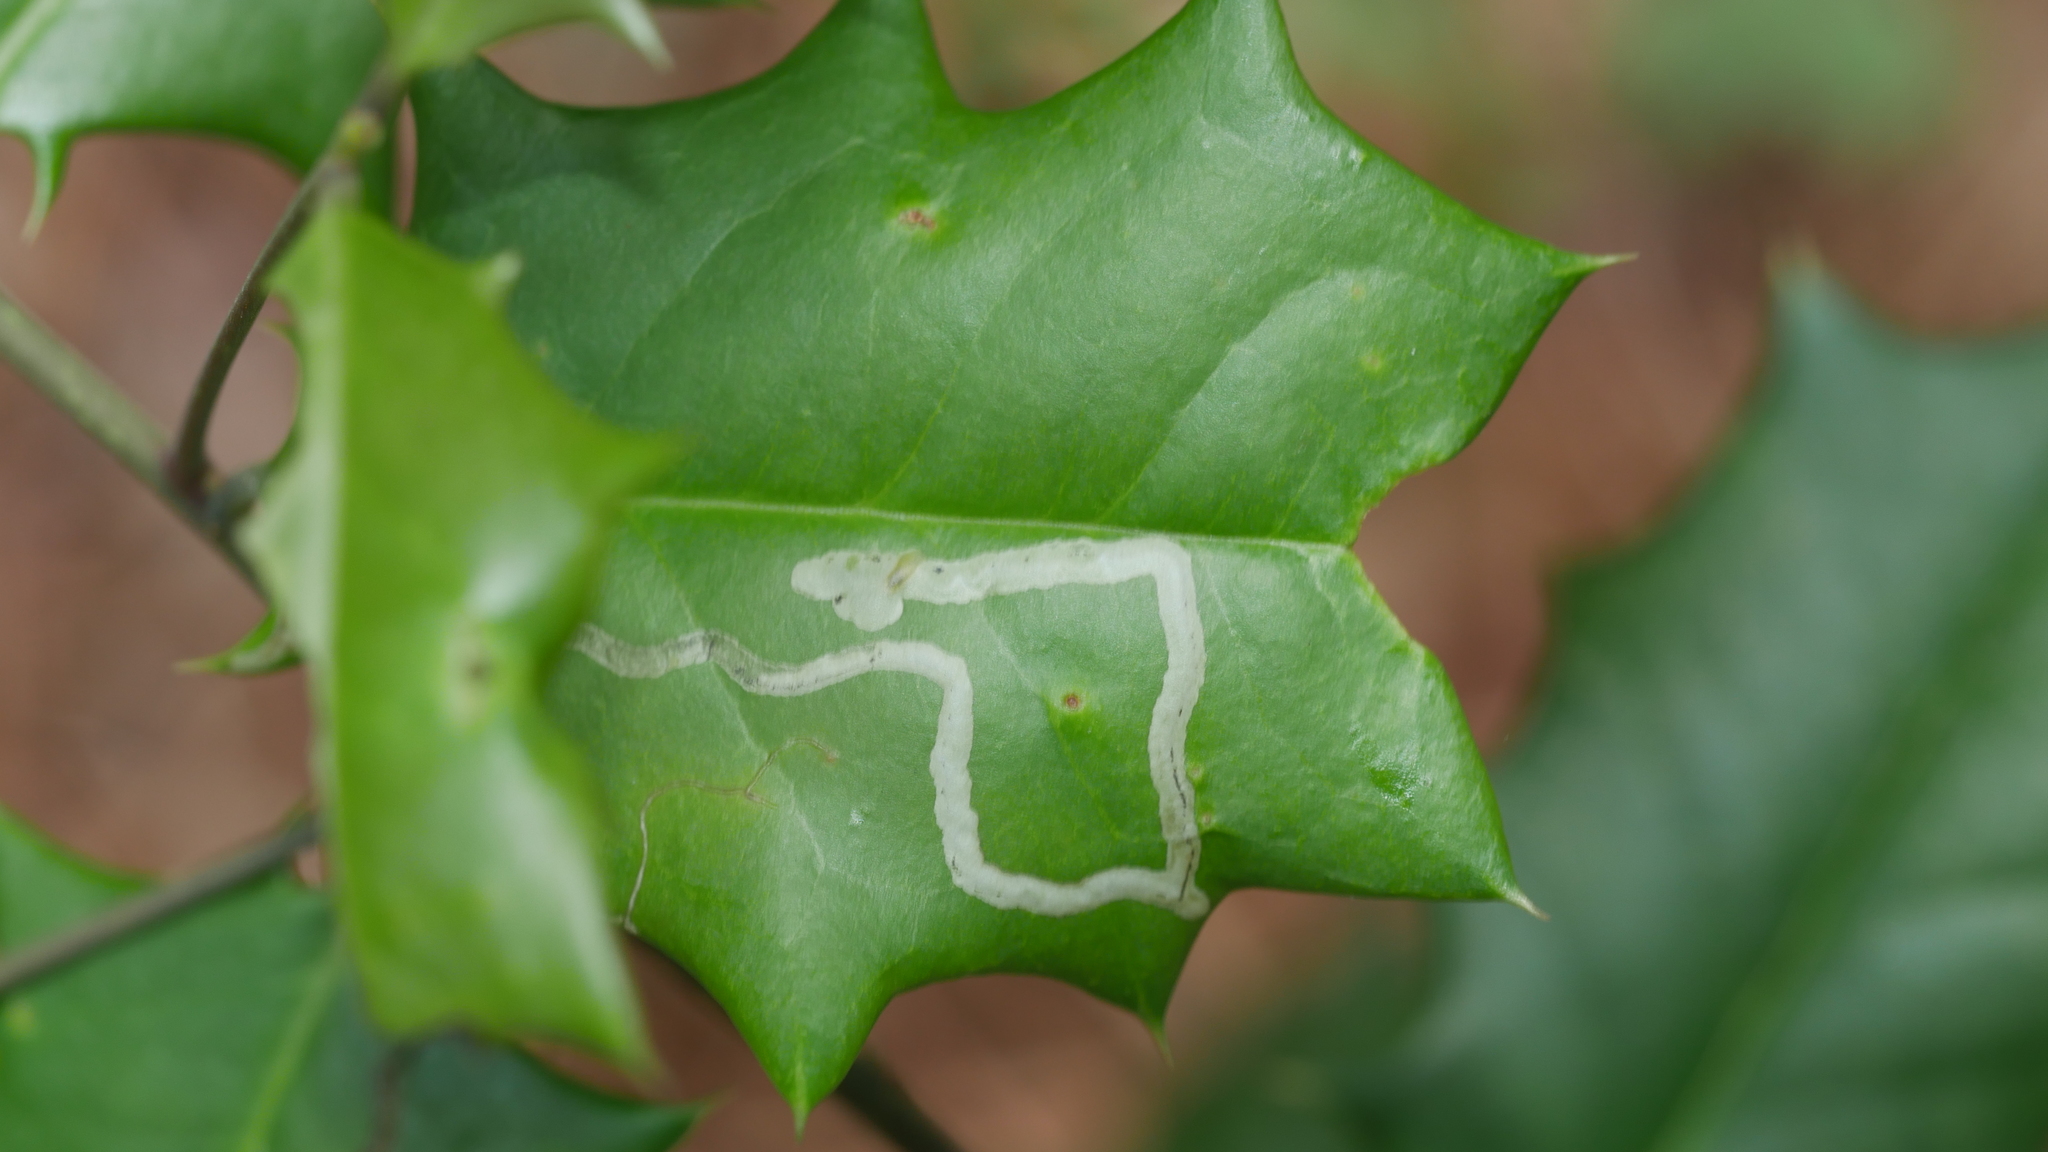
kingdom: Animalia
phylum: Arthropoda
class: Insecta
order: Diptera
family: Agromyzidae
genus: Phytomyza
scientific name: Phytomyza opacae
